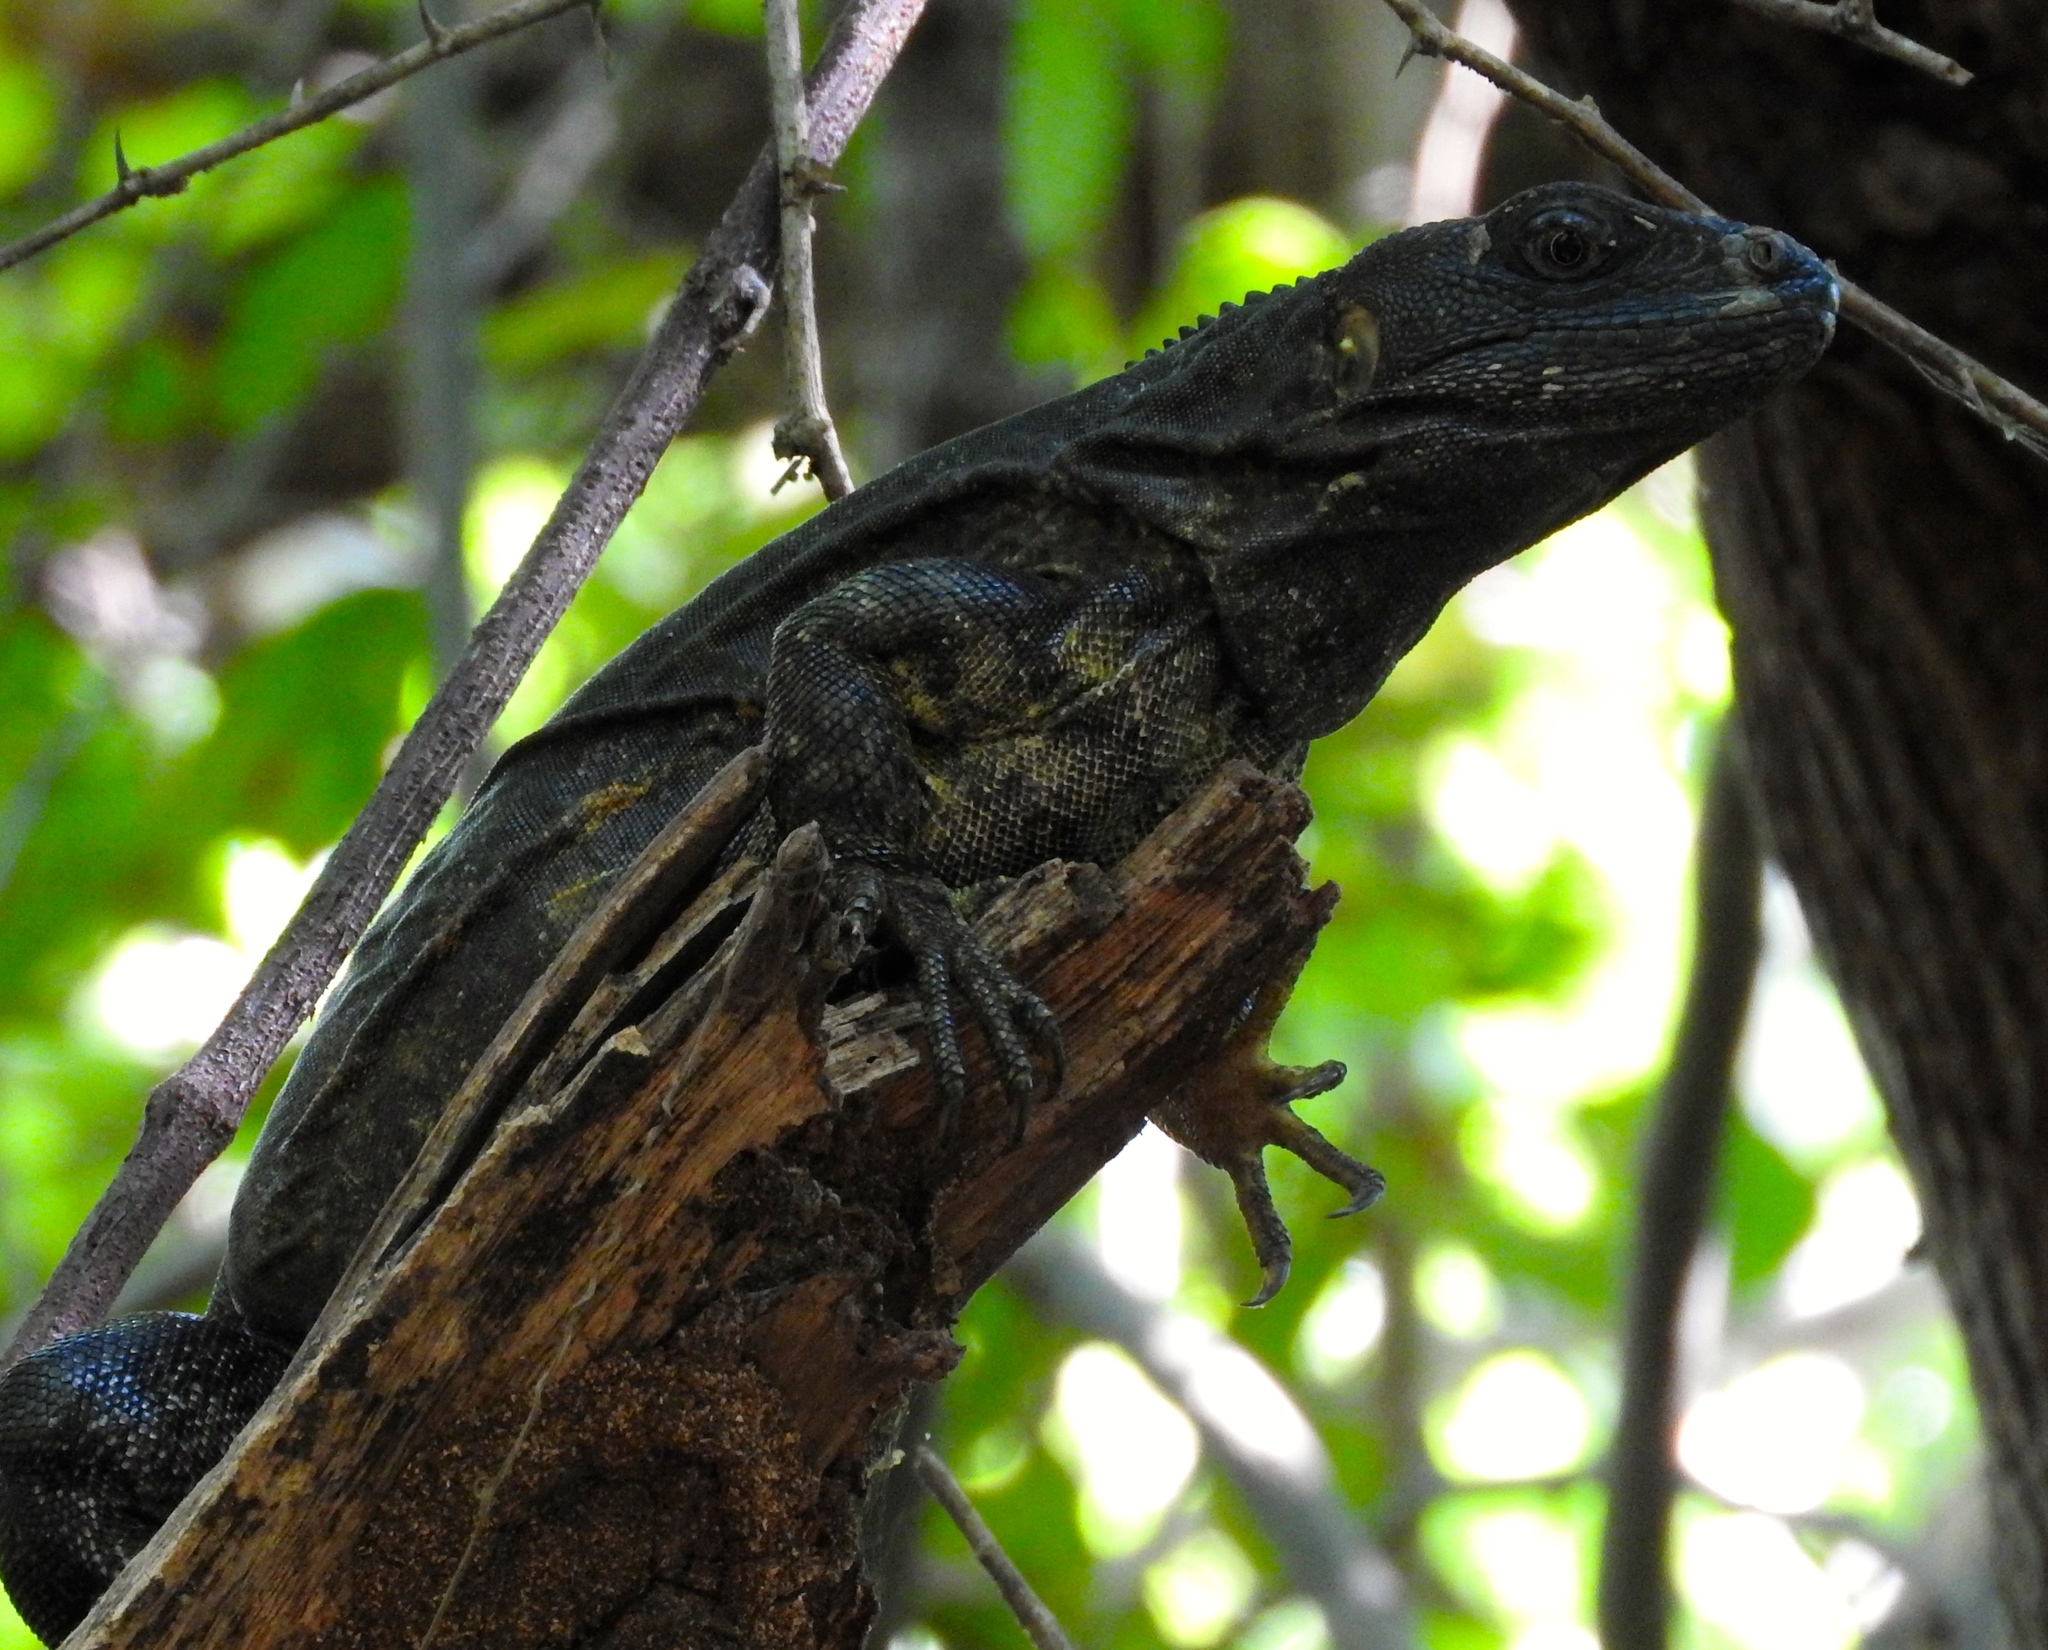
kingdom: Animalia
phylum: Chordata
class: Squamata
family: Iguanidae
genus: Ctenosaura
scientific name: Ctenosaura pectinata
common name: Guerreran spiny-tailed iguana
